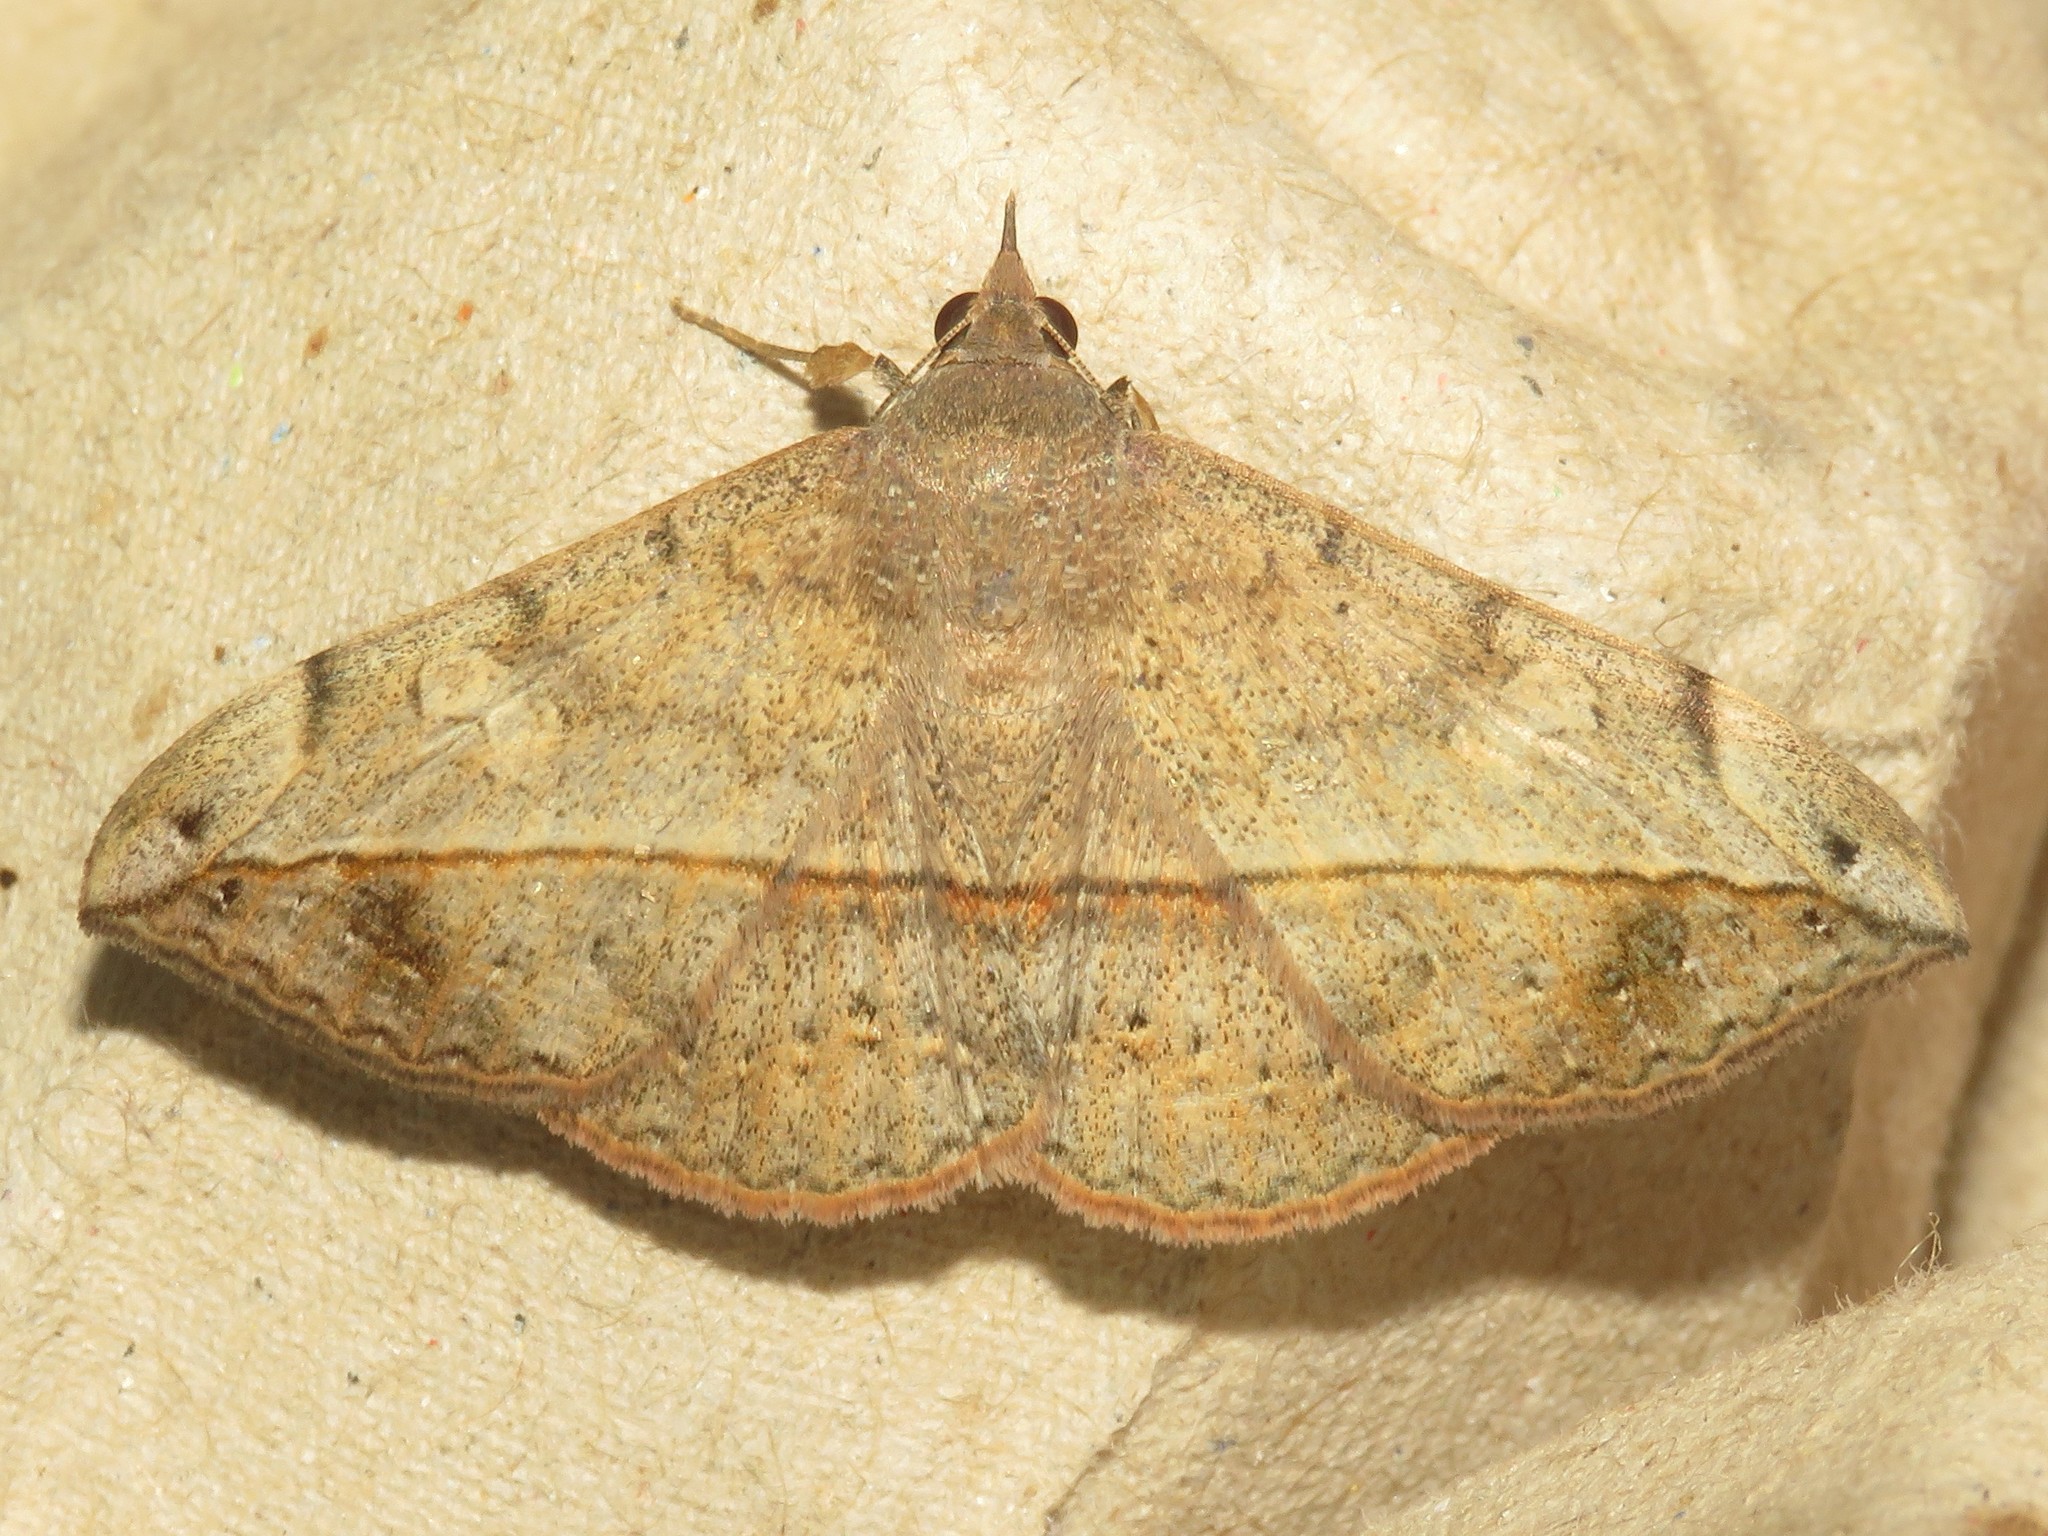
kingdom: Animalia
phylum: Arthropoda
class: Insecta
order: Lepidoptera
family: Erebidae
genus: Anticarsia
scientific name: Anticarsia gemmatalis
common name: Cutworm moth
